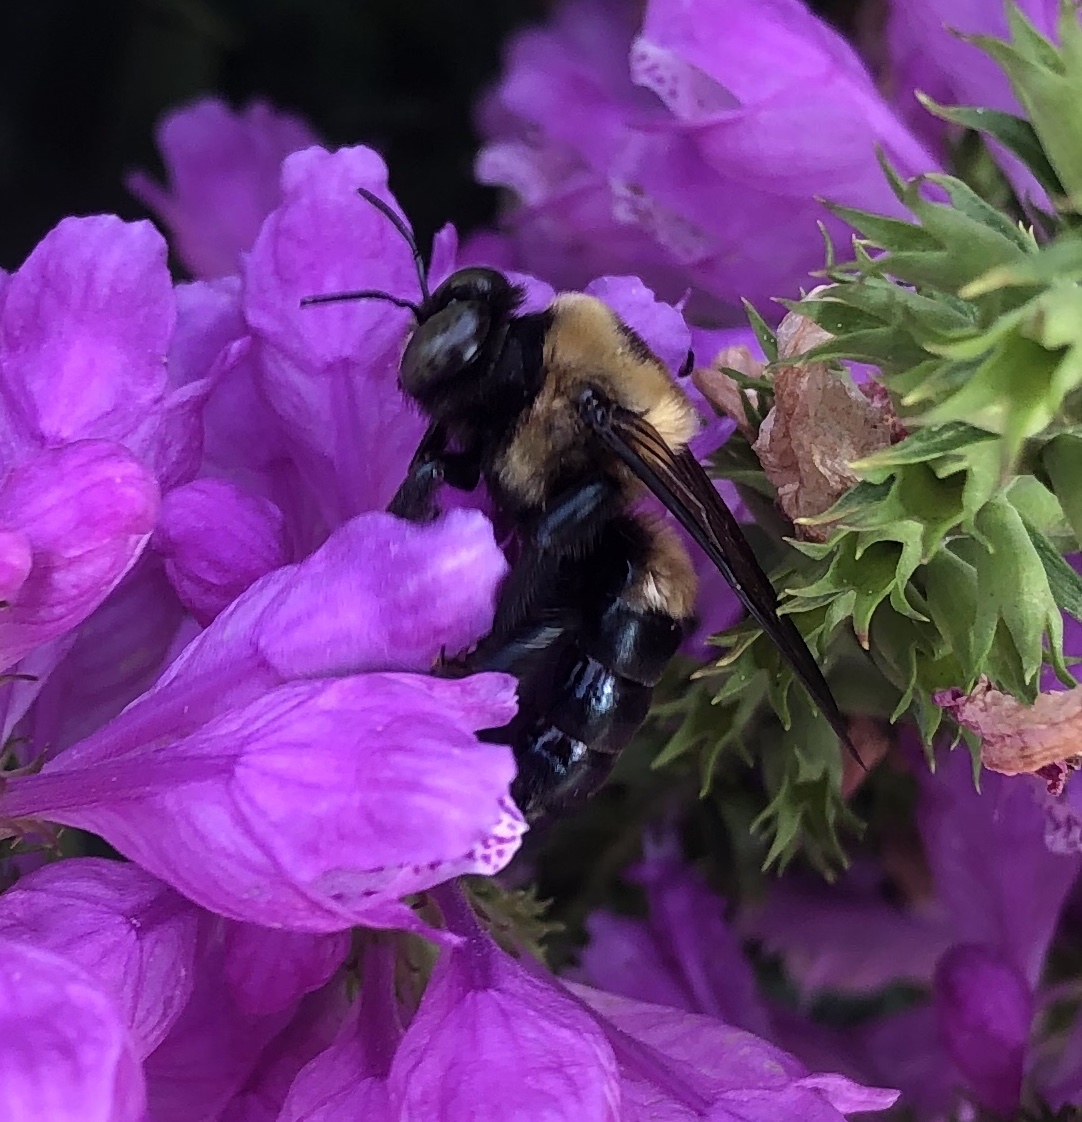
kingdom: Animalia
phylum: Arthropoda
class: Insecta
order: Hymenoptera
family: Apidae
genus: Xylocopa
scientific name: Xylocopa virginica
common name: Carpenter bee
